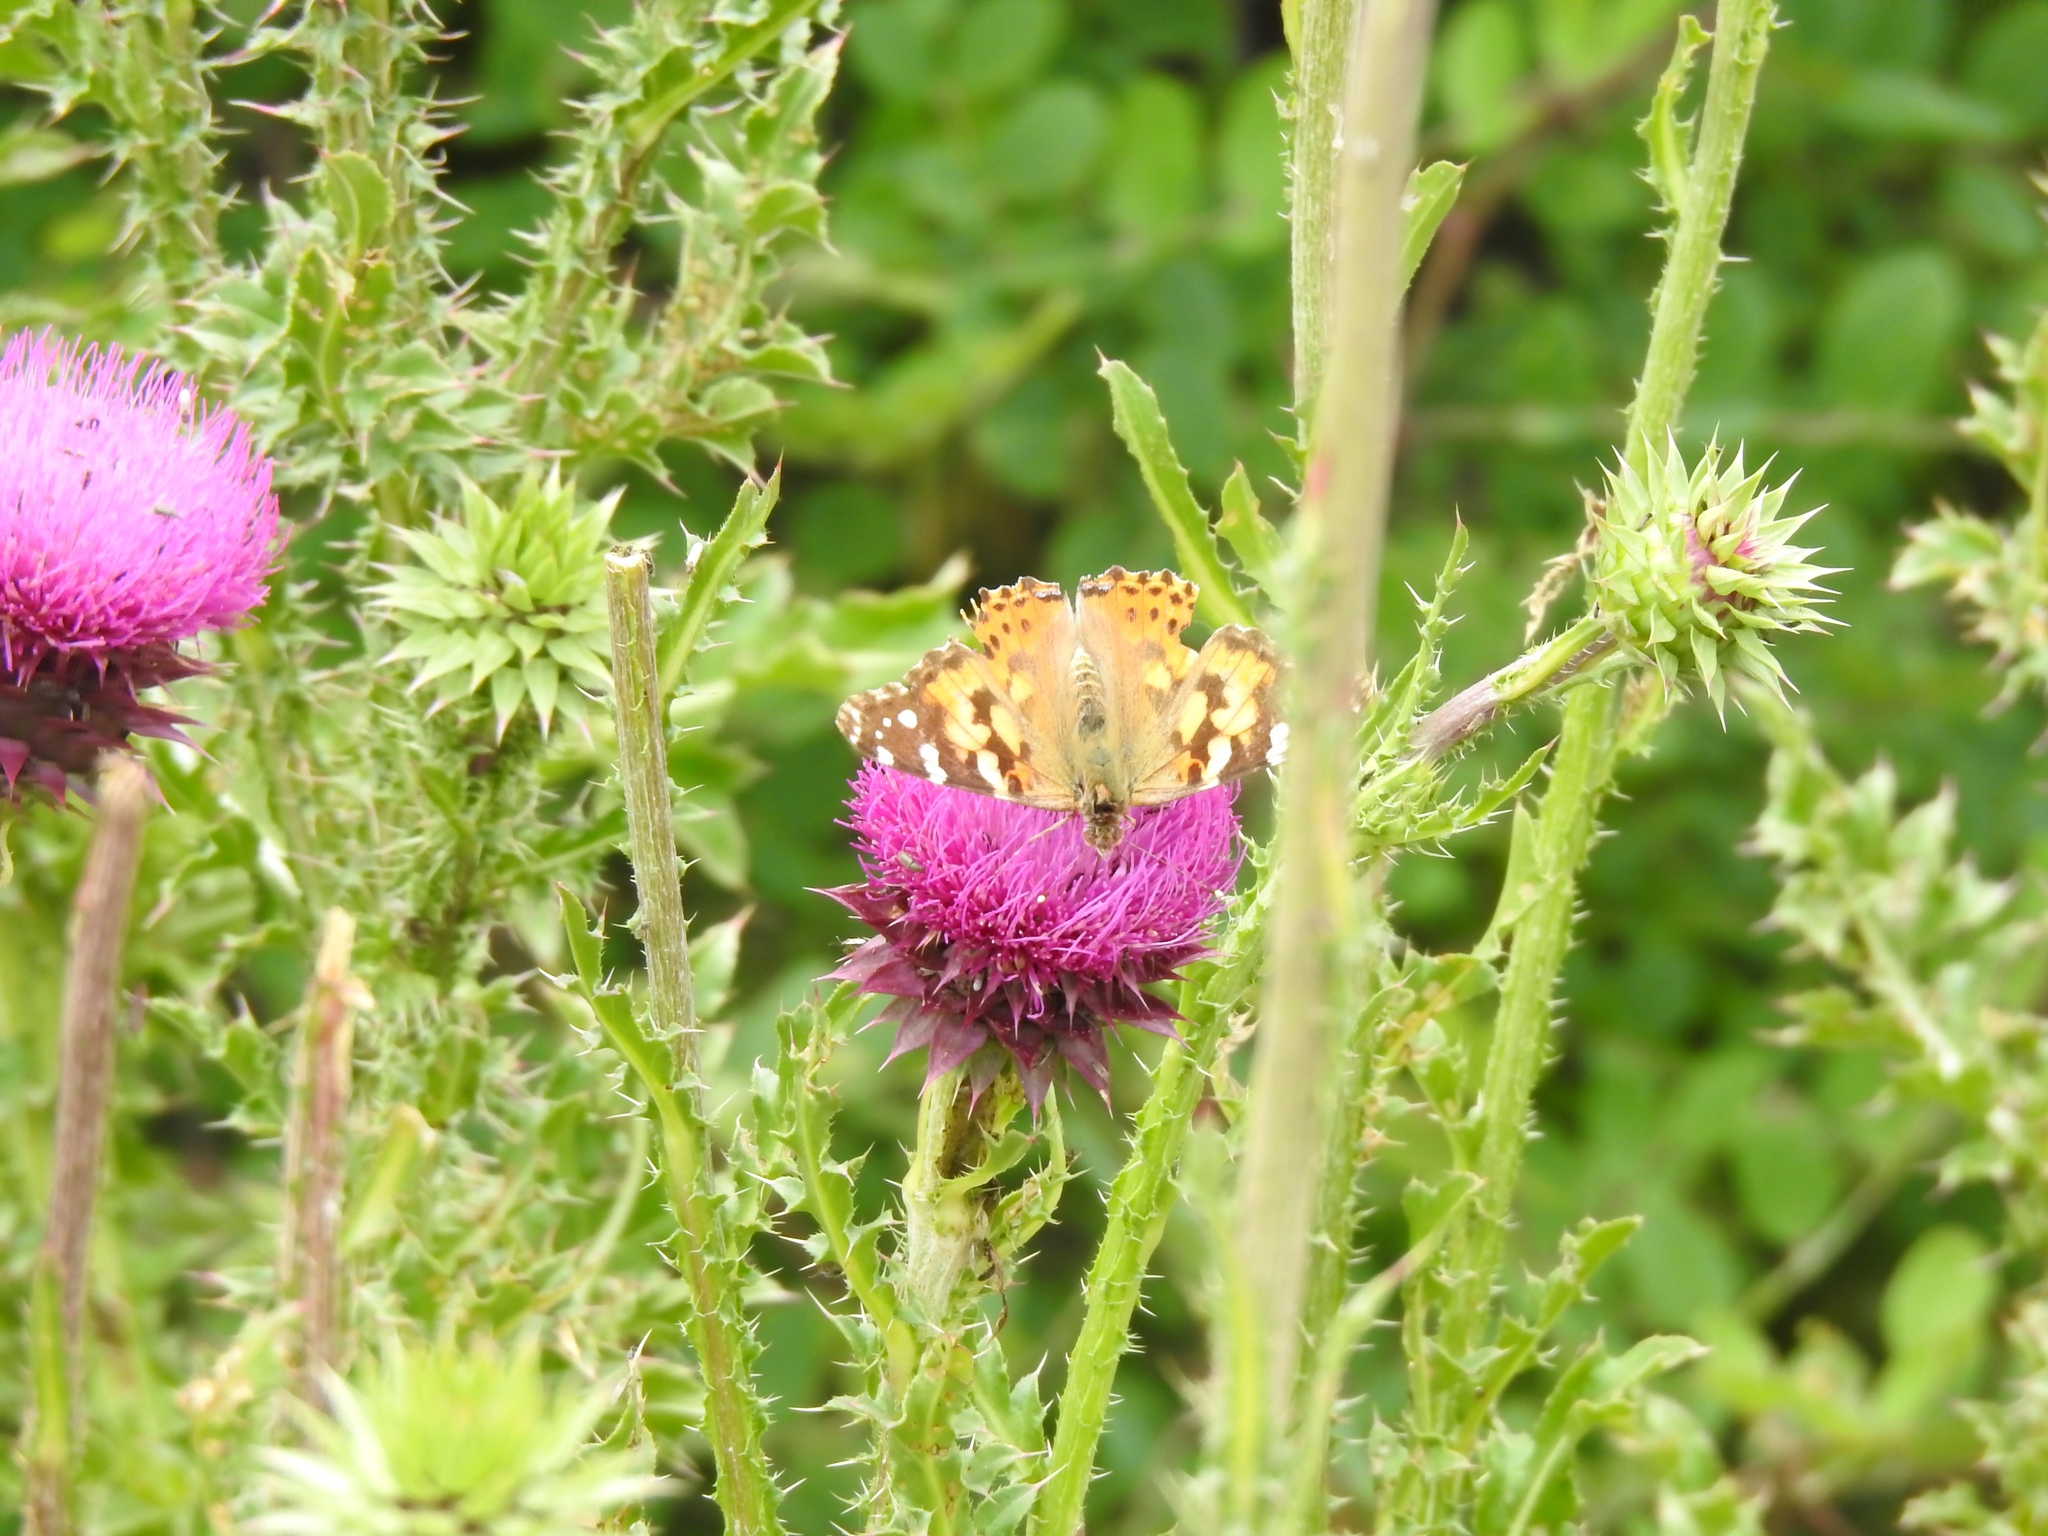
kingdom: Animalia
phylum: Arthropoda
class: Insecta
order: Lepidoptera
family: Nymphalidae
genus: Vanessa
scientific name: Vanessa cardui
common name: Painted lady
